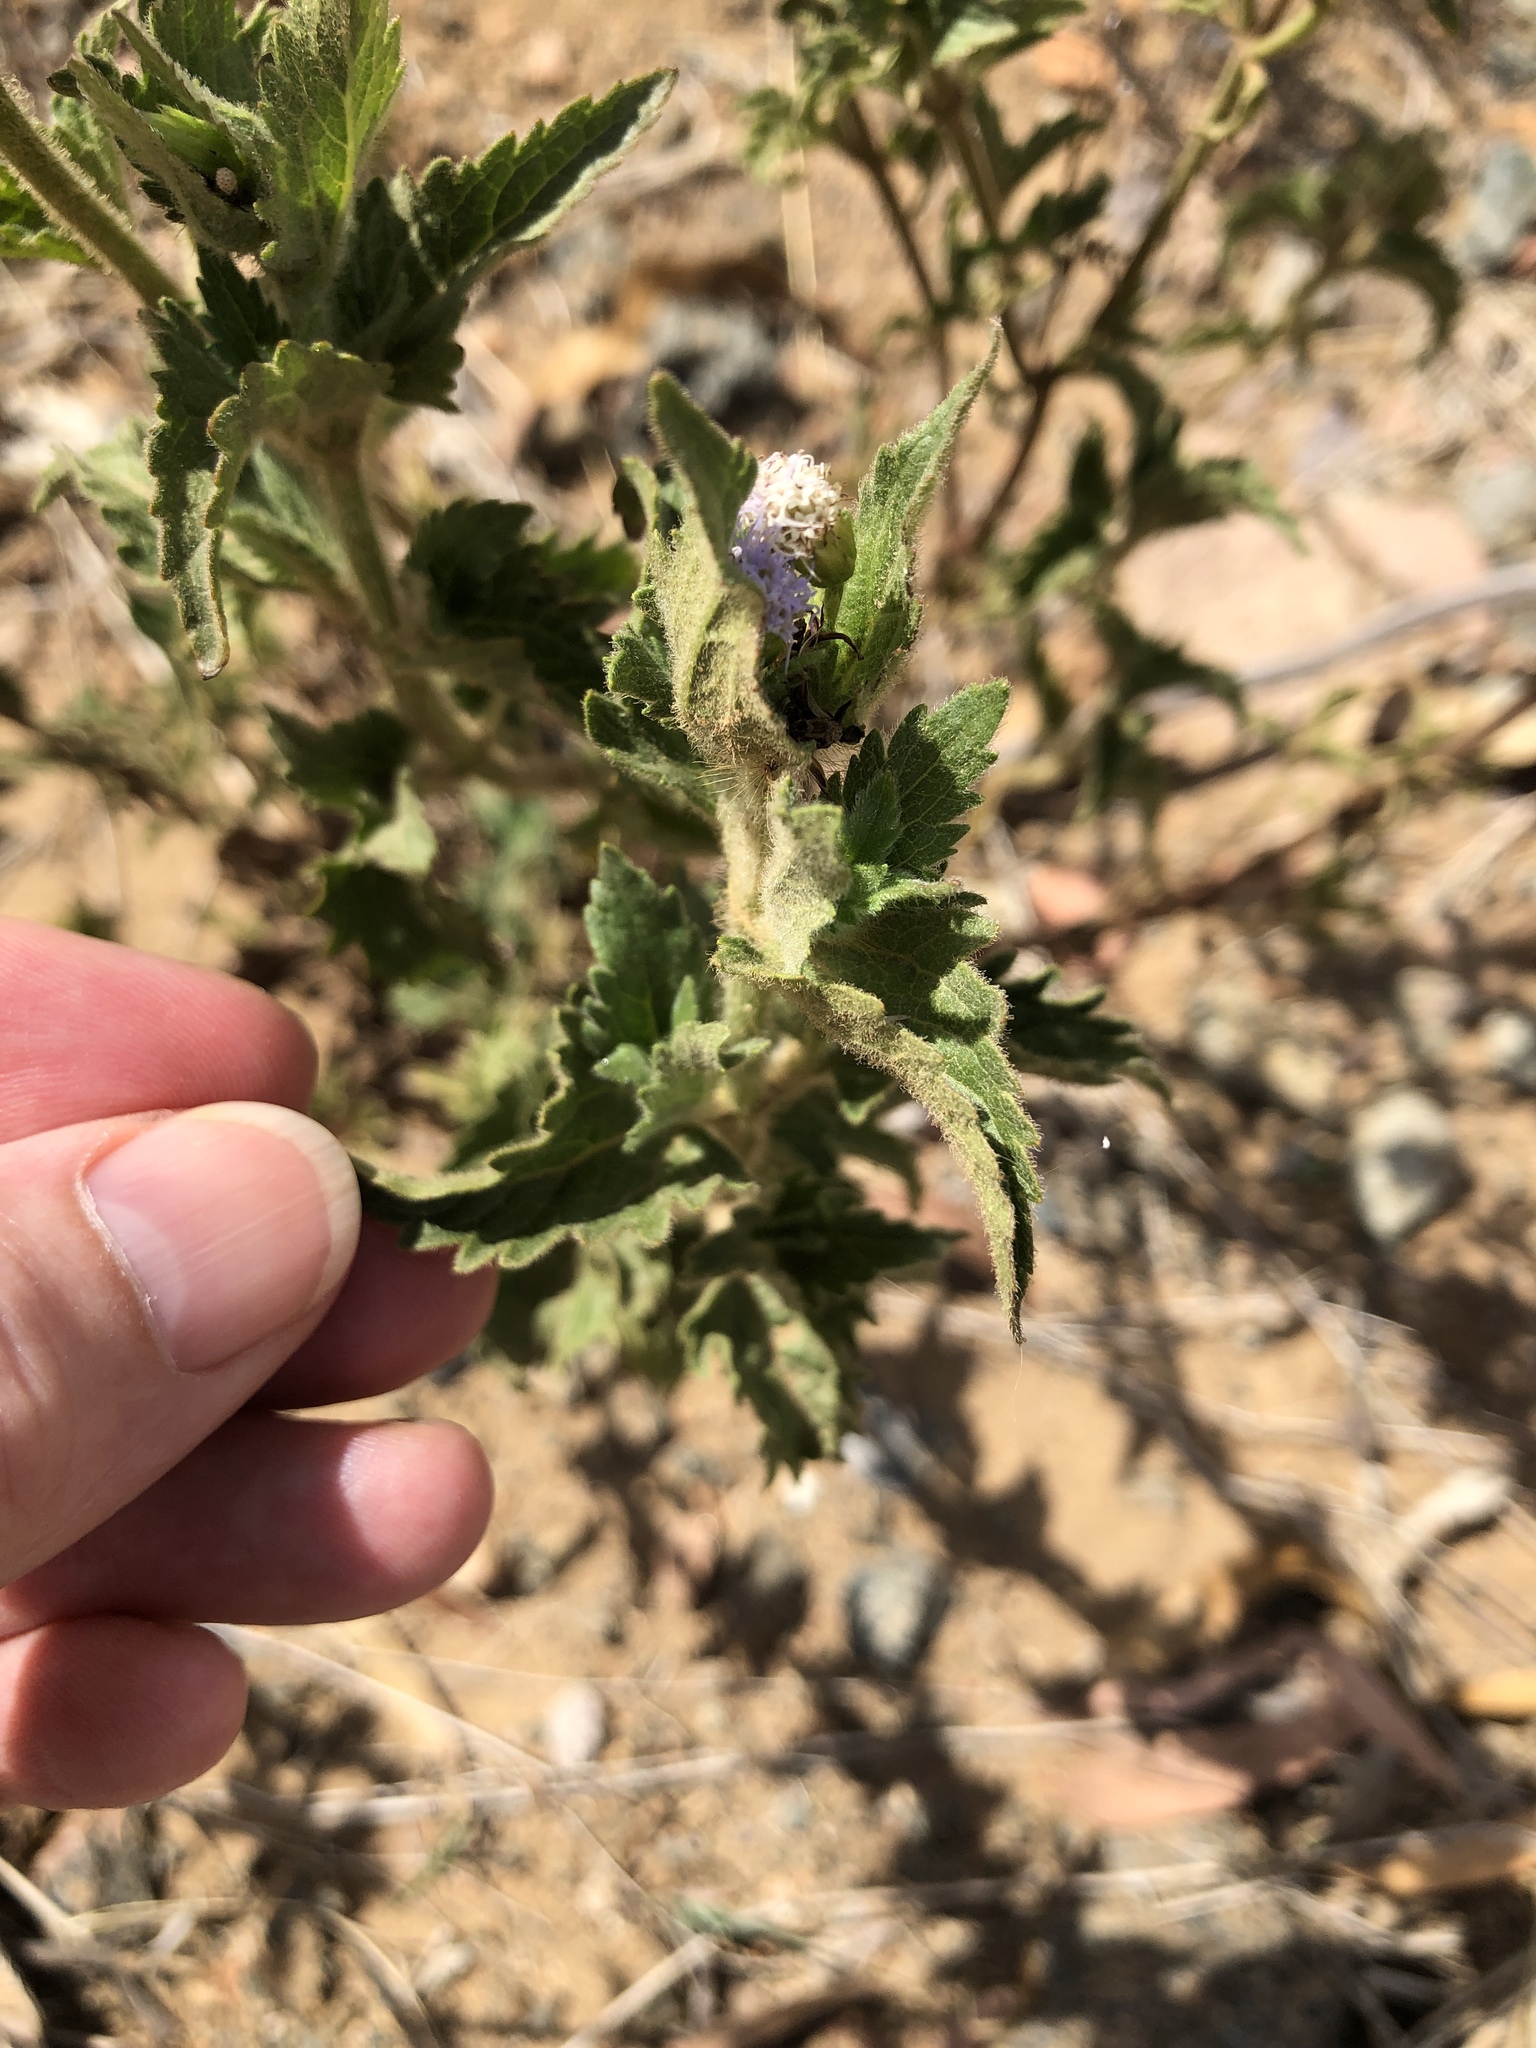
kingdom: Plantae
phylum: Tracheophyta
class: Magnoliopsida
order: Asterales
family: Asteraceae
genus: Praxelis
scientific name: Praxelis clematidea
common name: Praxelis
